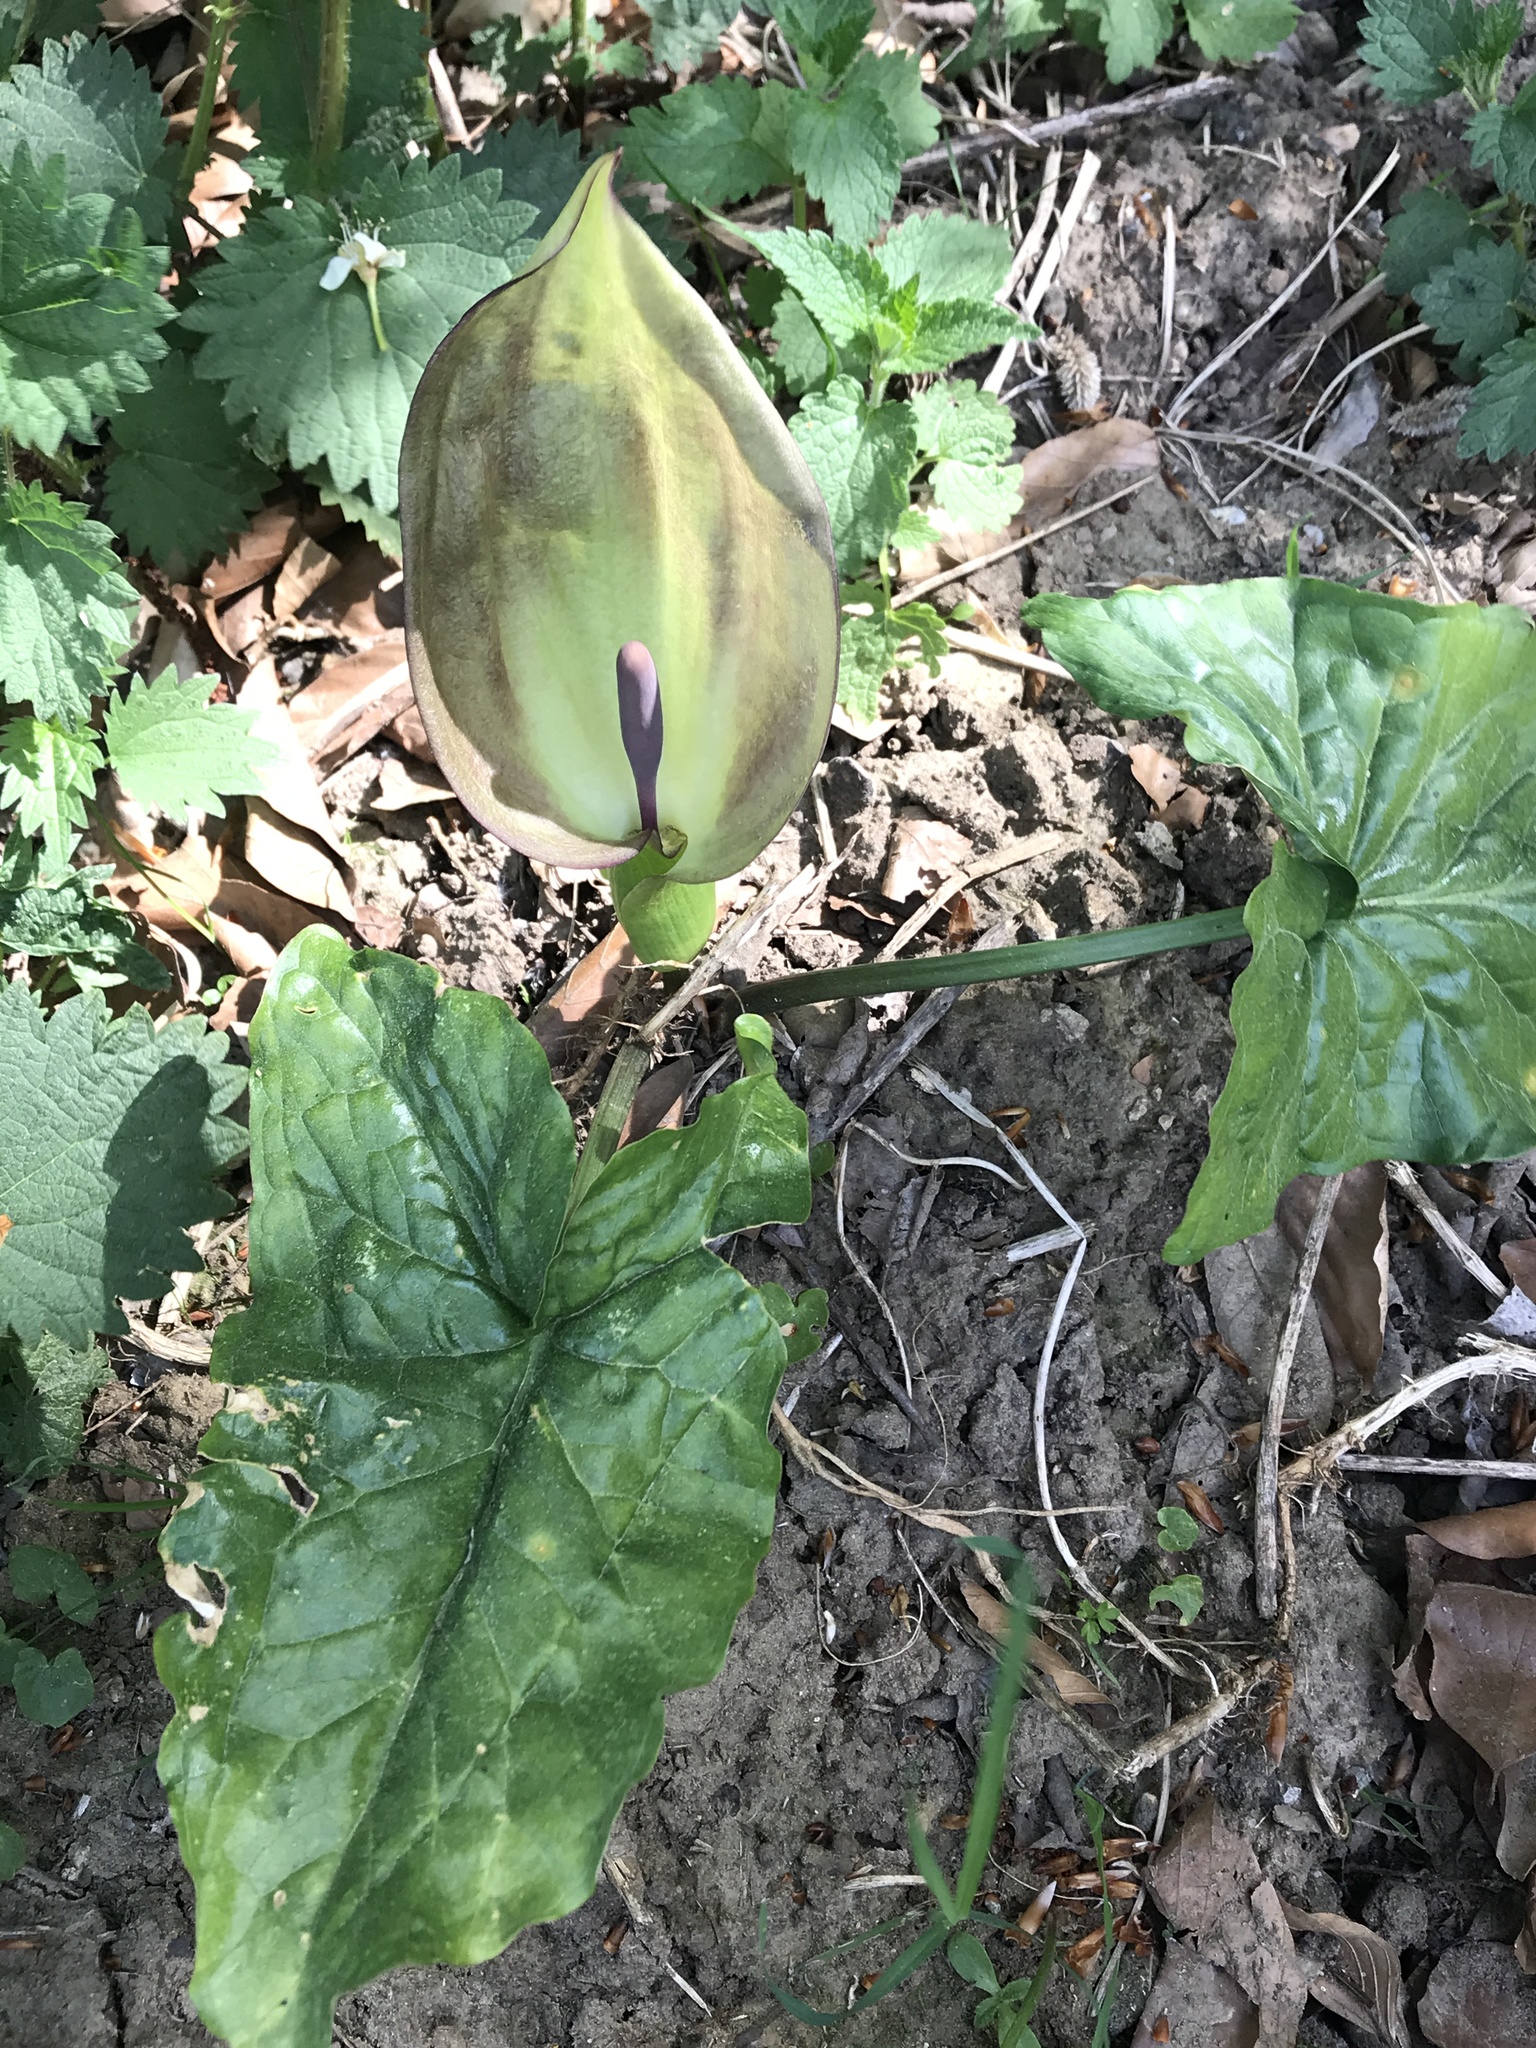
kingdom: Plantae
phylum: Tracheophyta
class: Liliopsida
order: Alismatales
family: Araceae
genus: Arum
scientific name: Arum maculatum
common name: Lords-and-ladies
